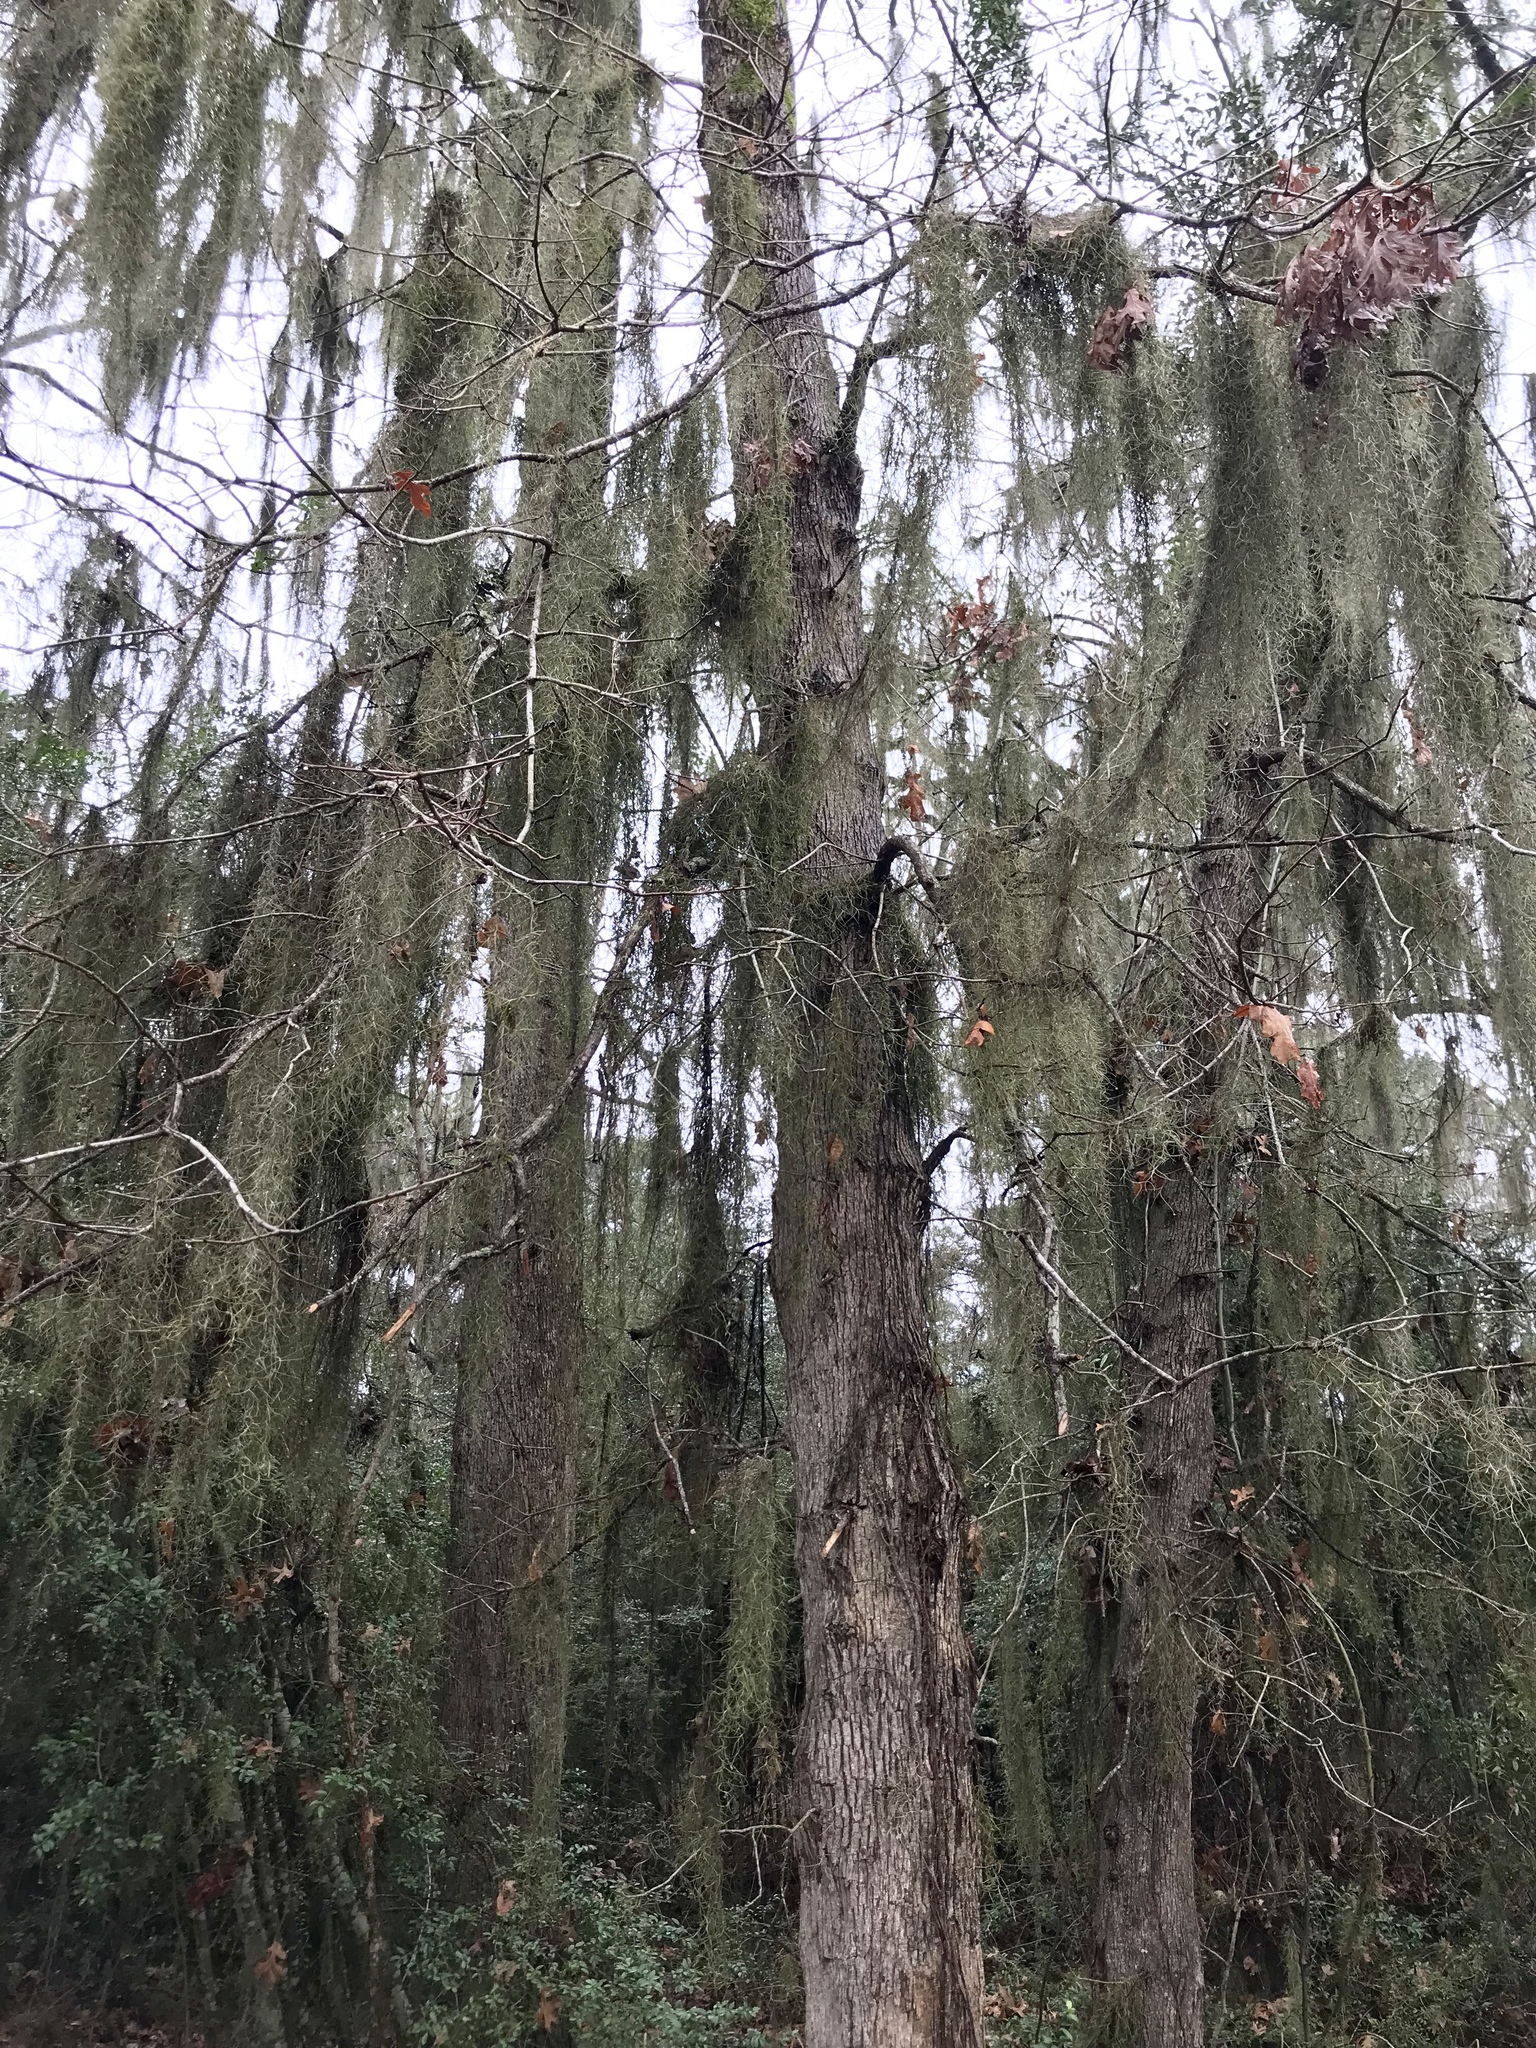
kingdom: Plantae
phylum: Tracheophyta
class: Liliopsida
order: Poales
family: Bromeliaceae
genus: Tillandsia
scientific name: Tillandsia usneoides
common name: Spanish moss
